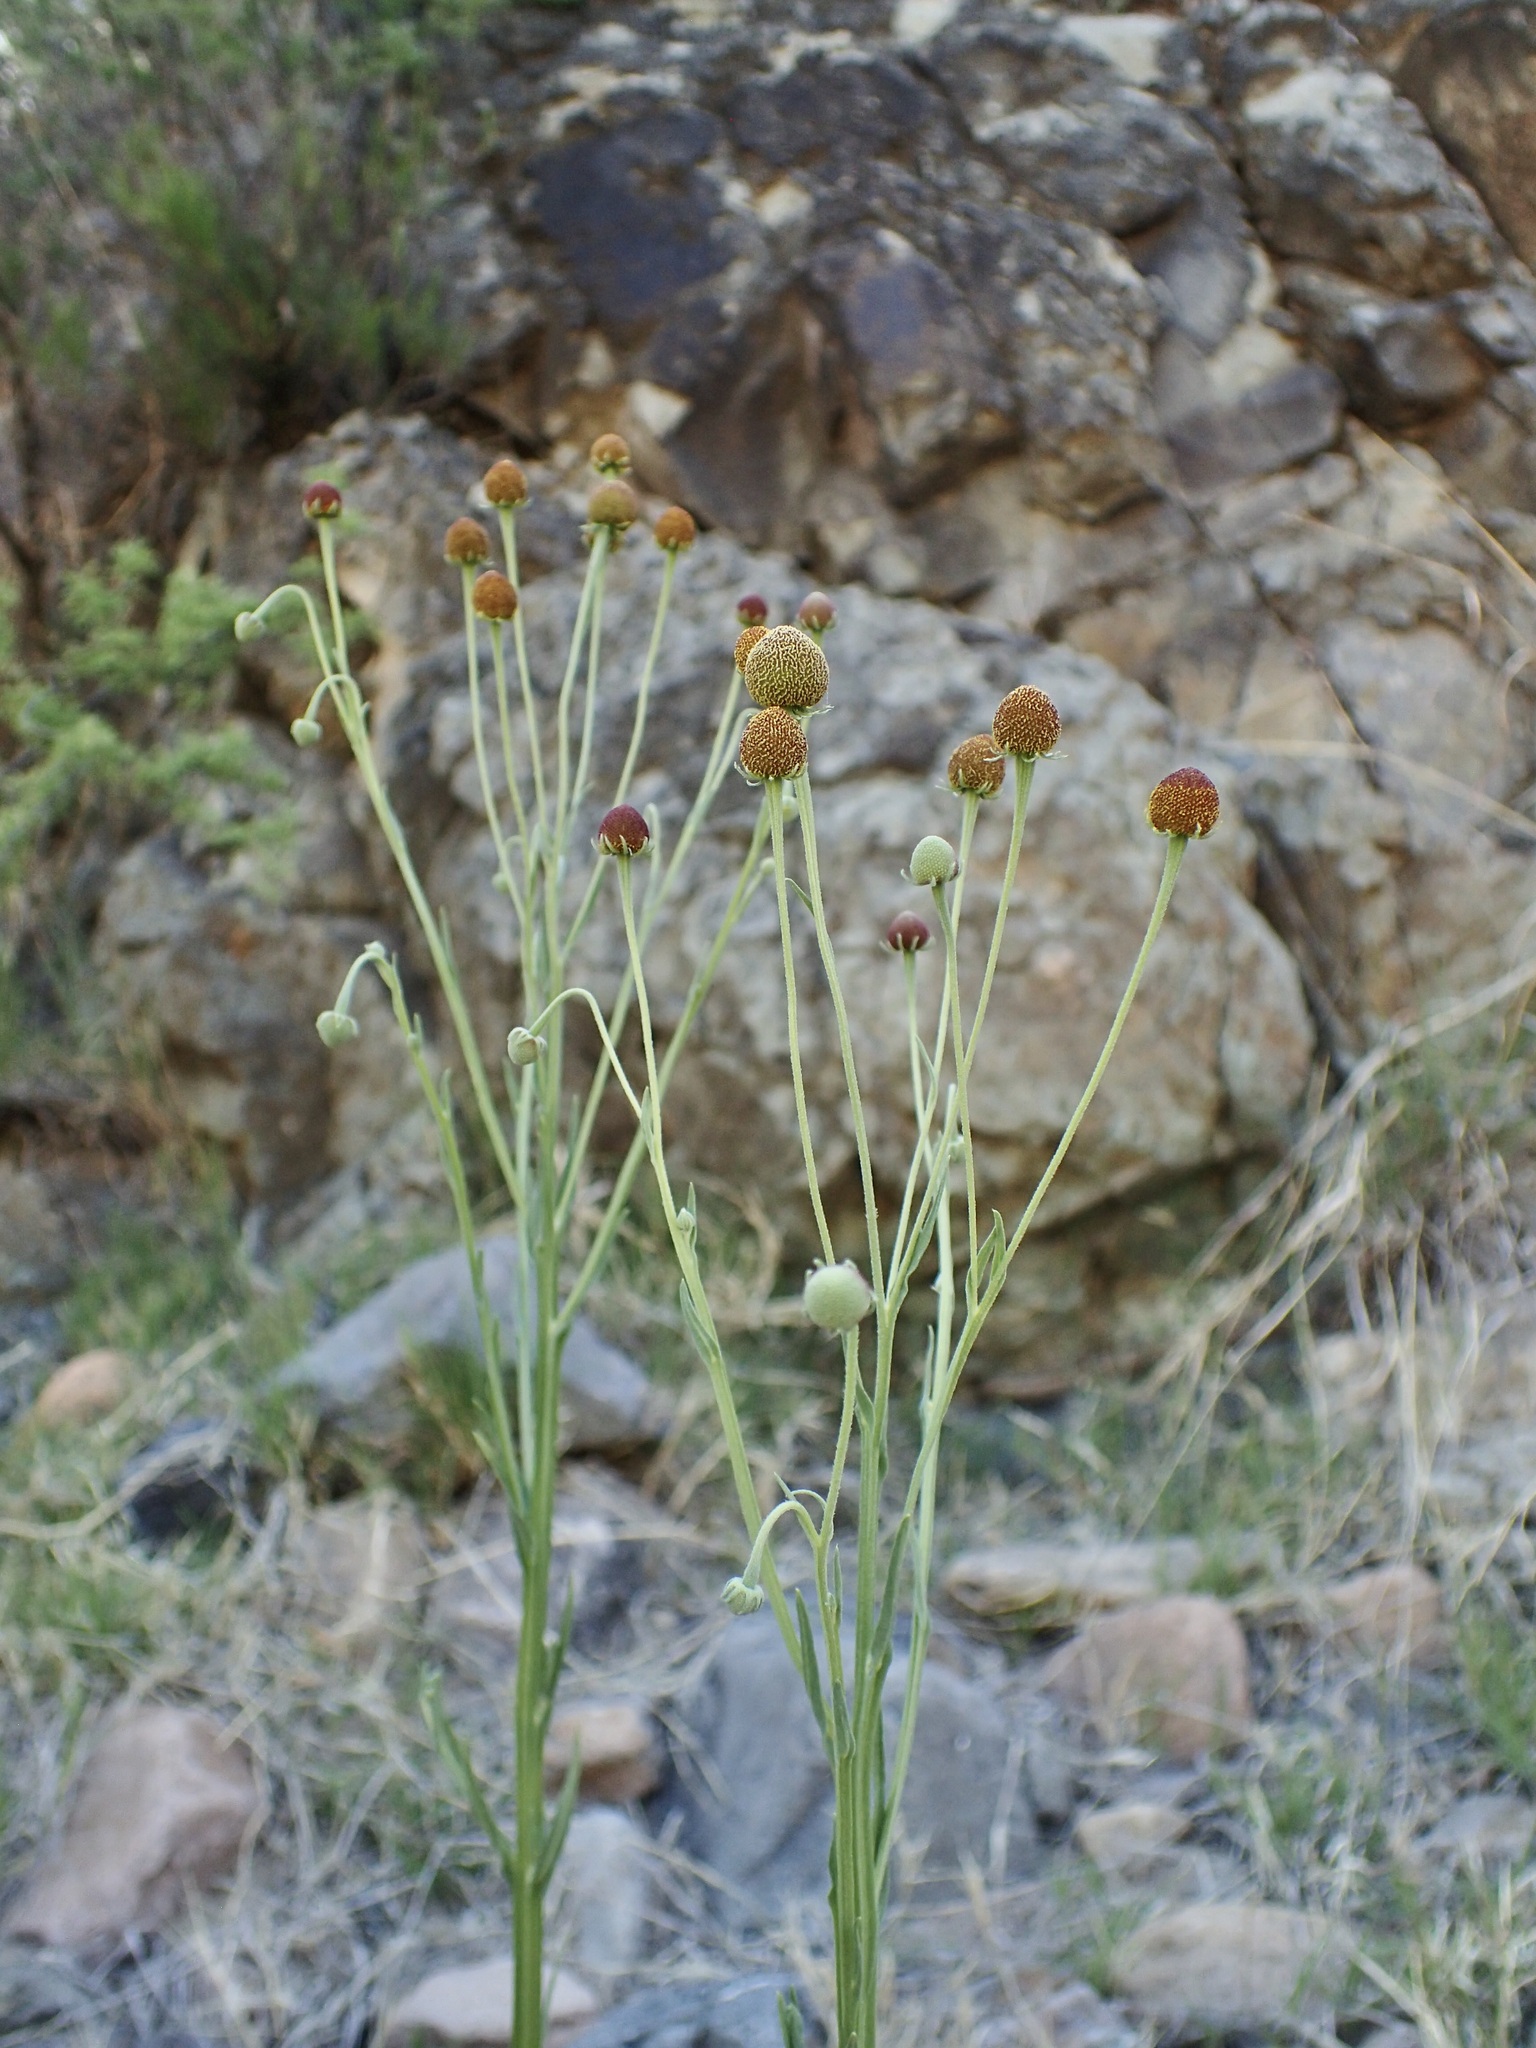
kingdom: Plantae
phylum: Tracheophyta
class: Magnoliopsida
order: Asterales
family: Asteraceae
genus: Helenium
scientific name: Helenium thurberi
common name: Thurber's sneezeweed
